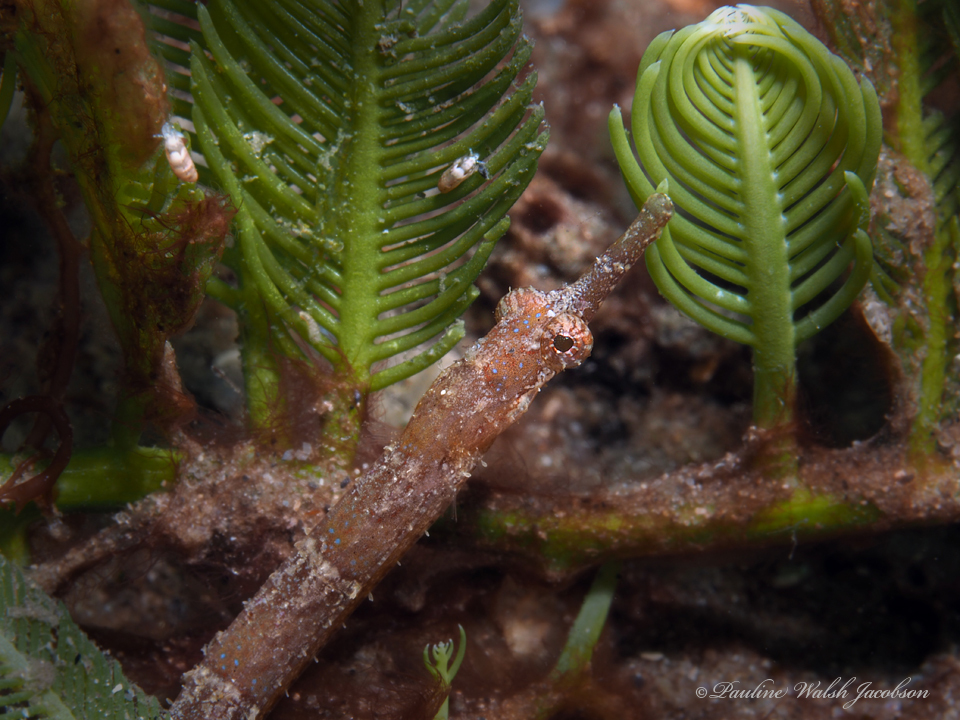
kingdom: Animalia
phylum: Chordata
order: Syngnathiformes
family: Syngnathidae
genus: Cosmocampus
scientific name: Cosmocampus elucens
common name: Poey's pipefish
